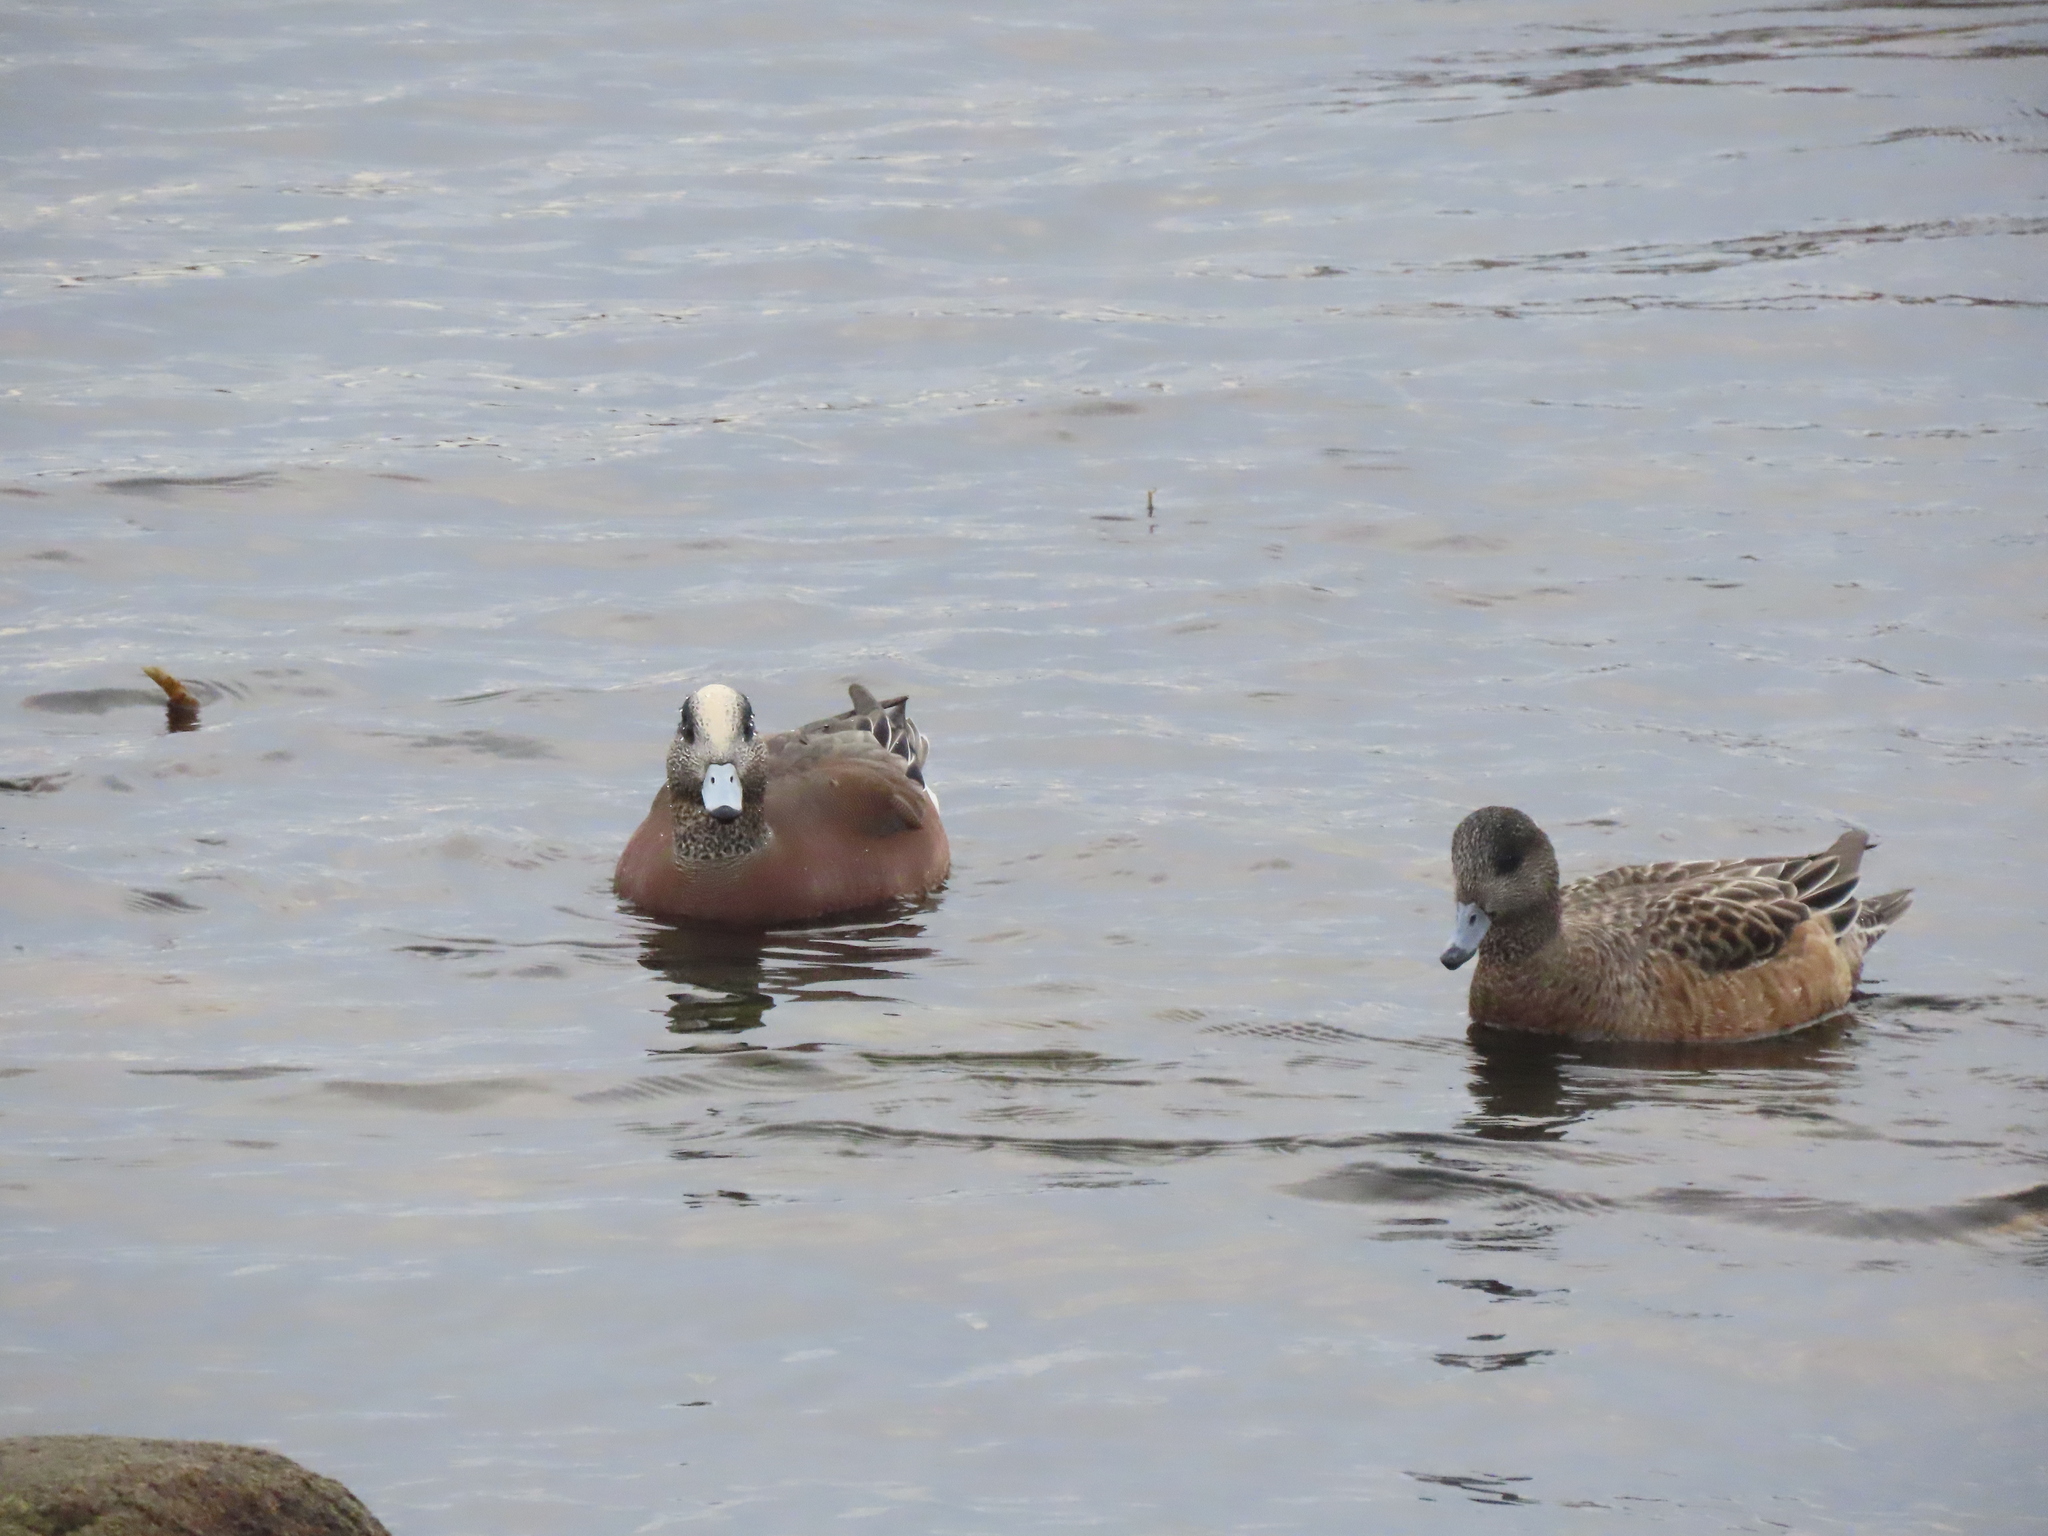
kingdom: Animalia
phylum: Chordata
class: Aves
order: Anseriformes
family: Anatidae
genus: Mareca
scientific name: Mareca americana
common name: American wigeon
